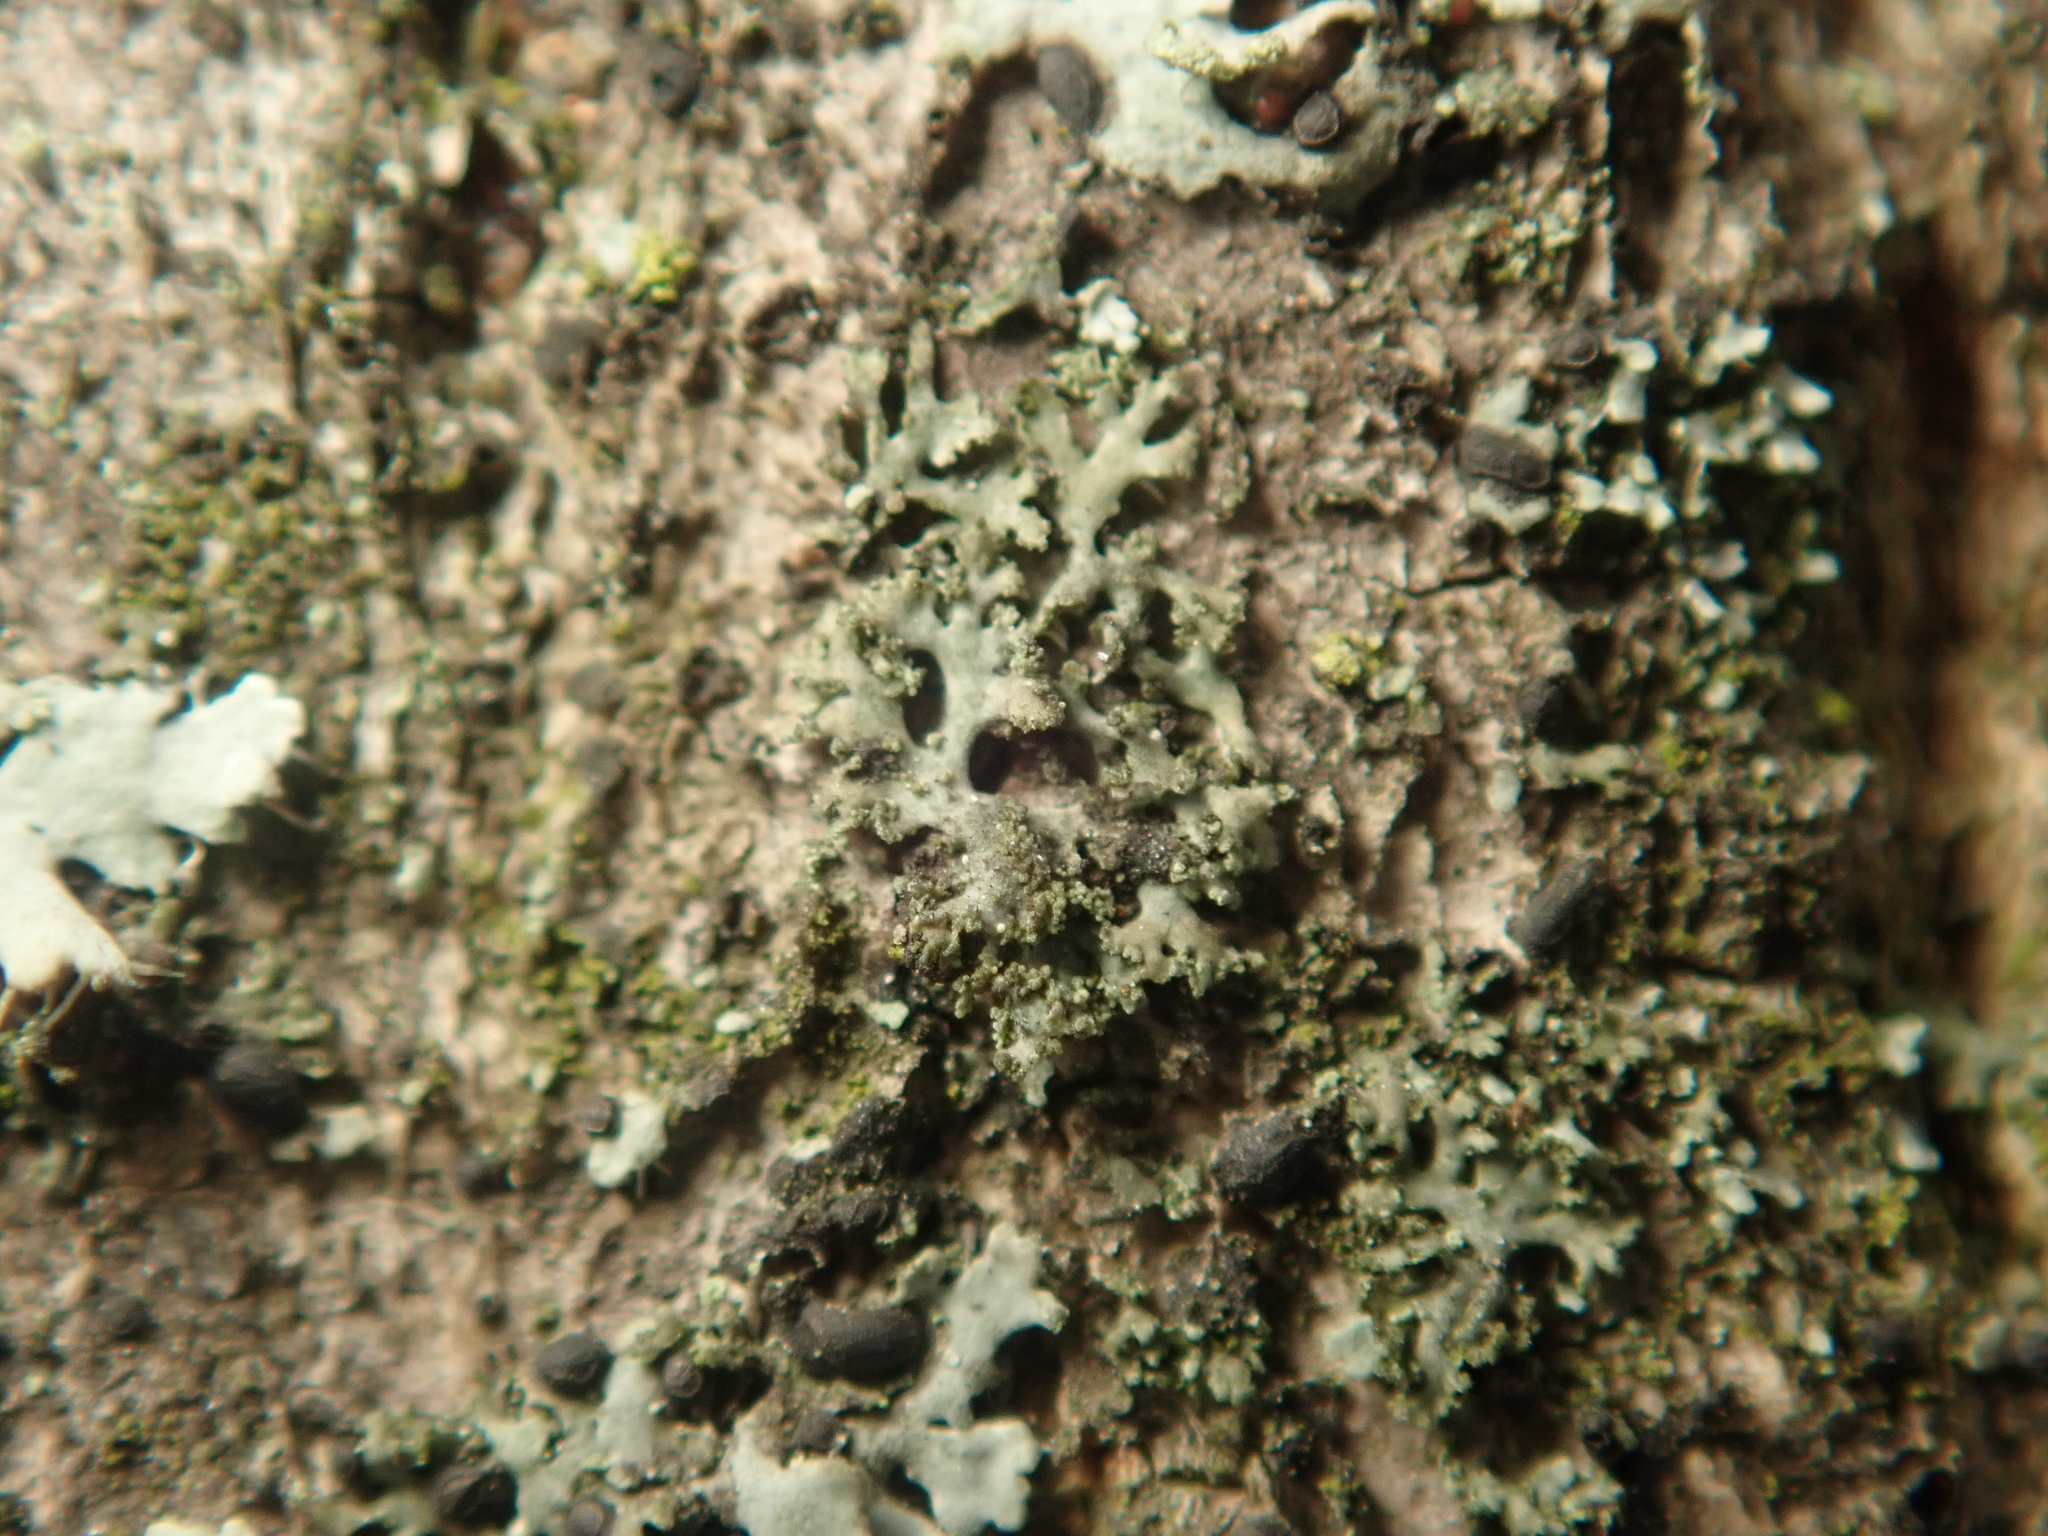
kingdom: Fungi
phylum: Ascomycota
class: Lecanoromycetes
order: Caliciales
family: Physciaceae
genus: Physciella
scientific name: Physciella nigricans
